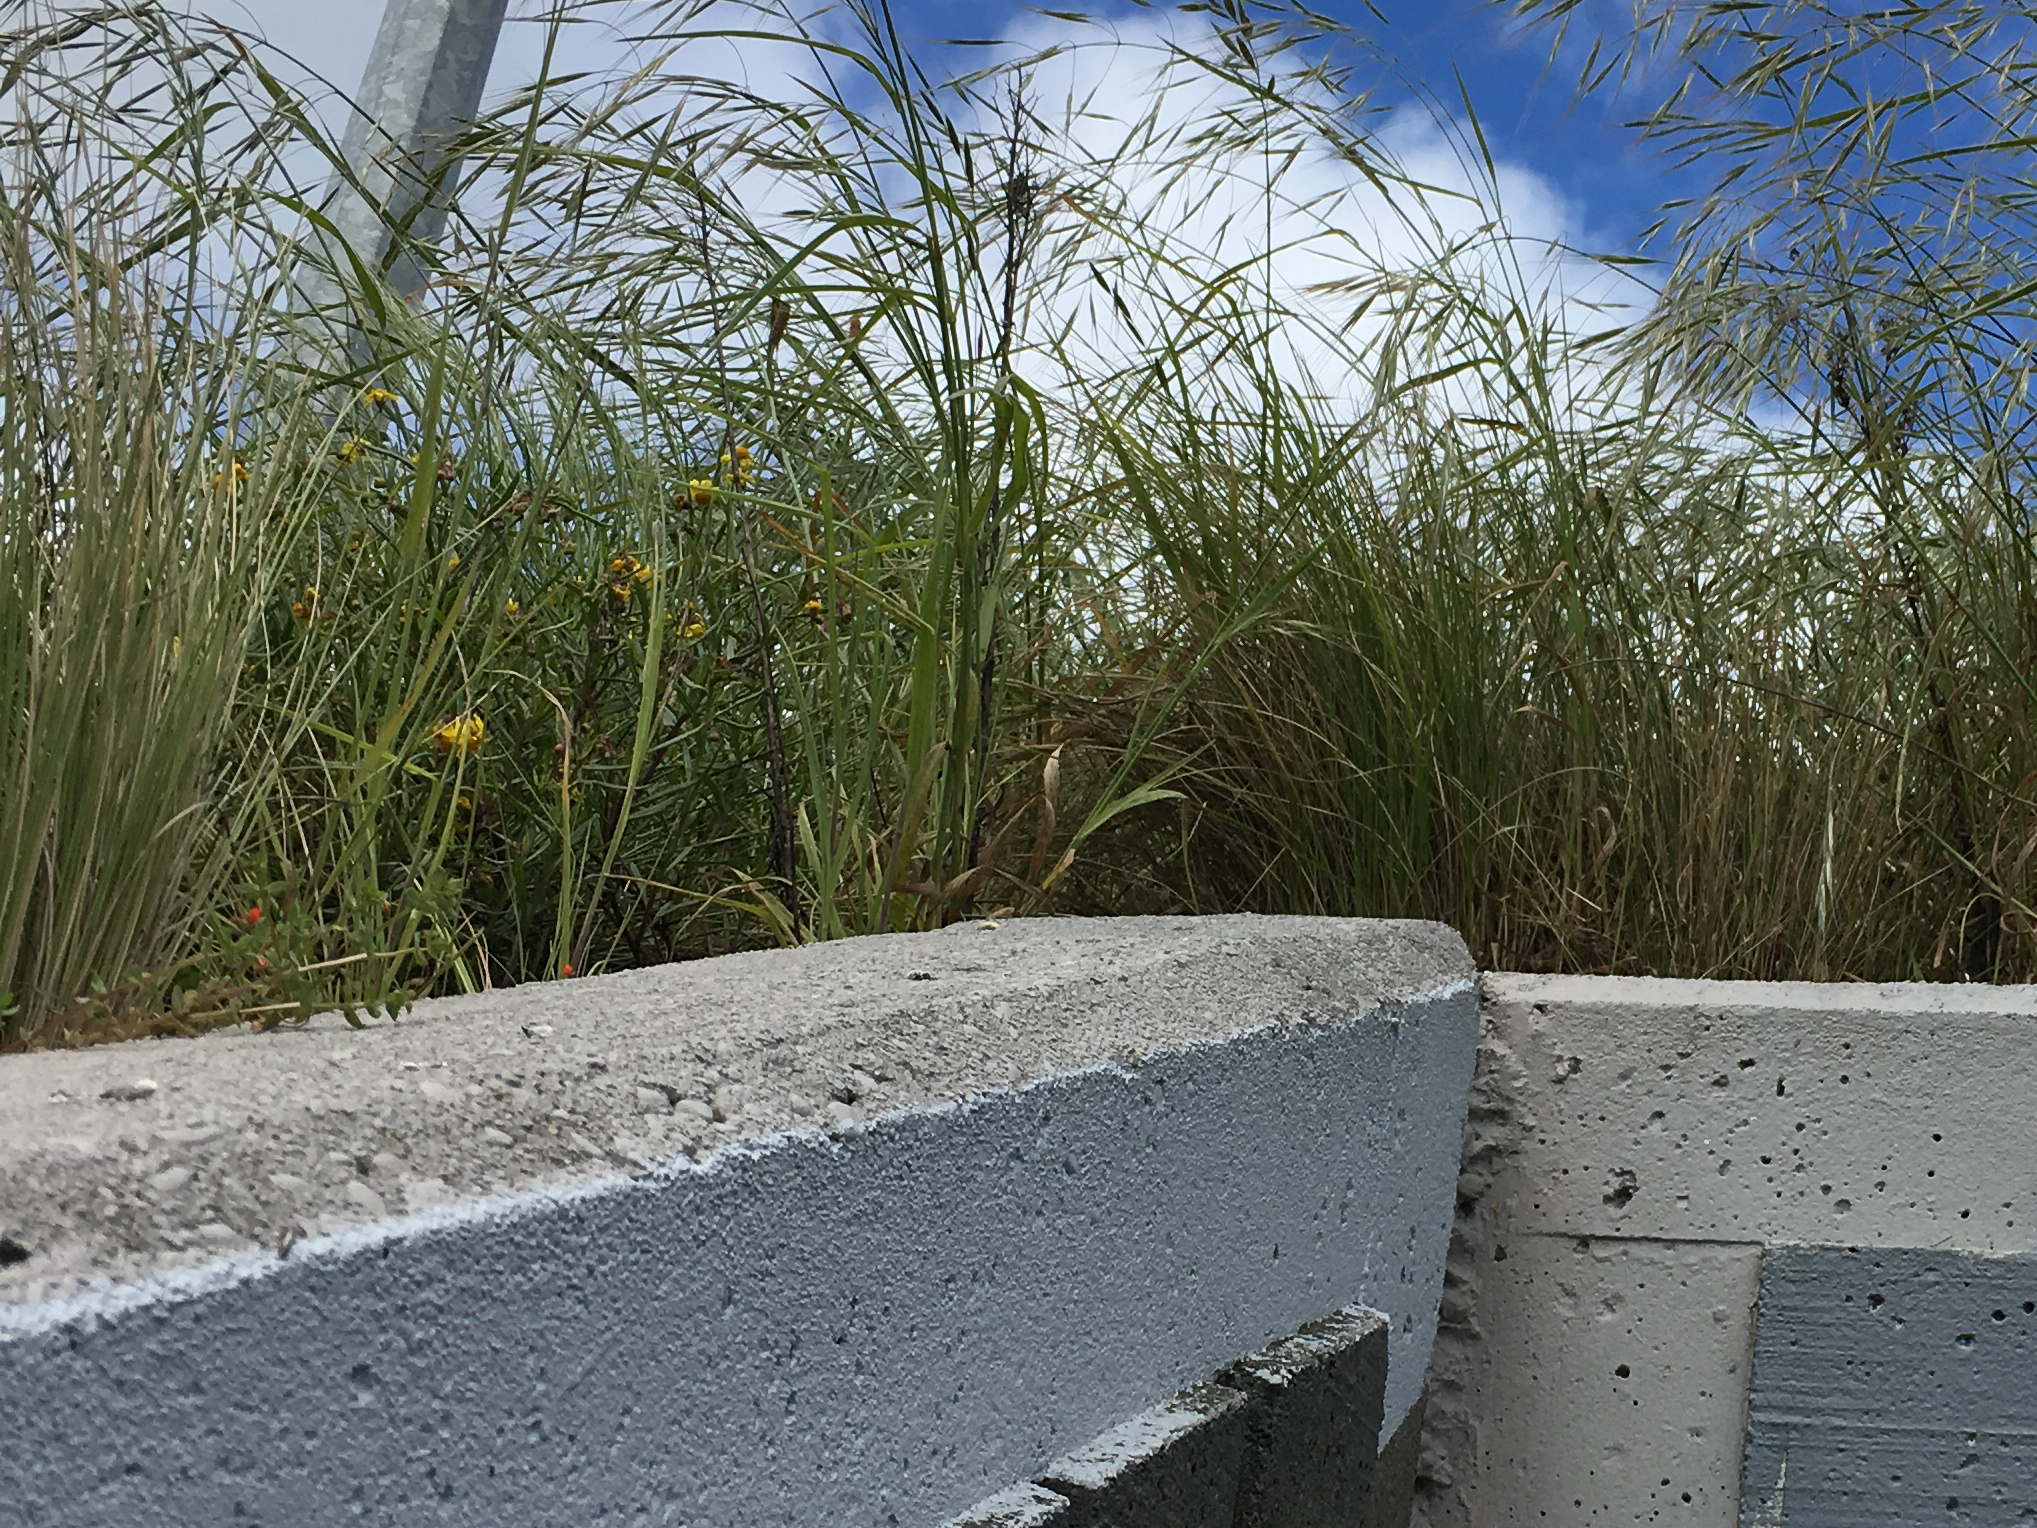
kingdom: Plantae
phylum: Tracheophyta
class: Magnoliopsida
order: Asterales
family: Asteraceae
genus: Senecio
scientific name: Senecio skirrhodon
